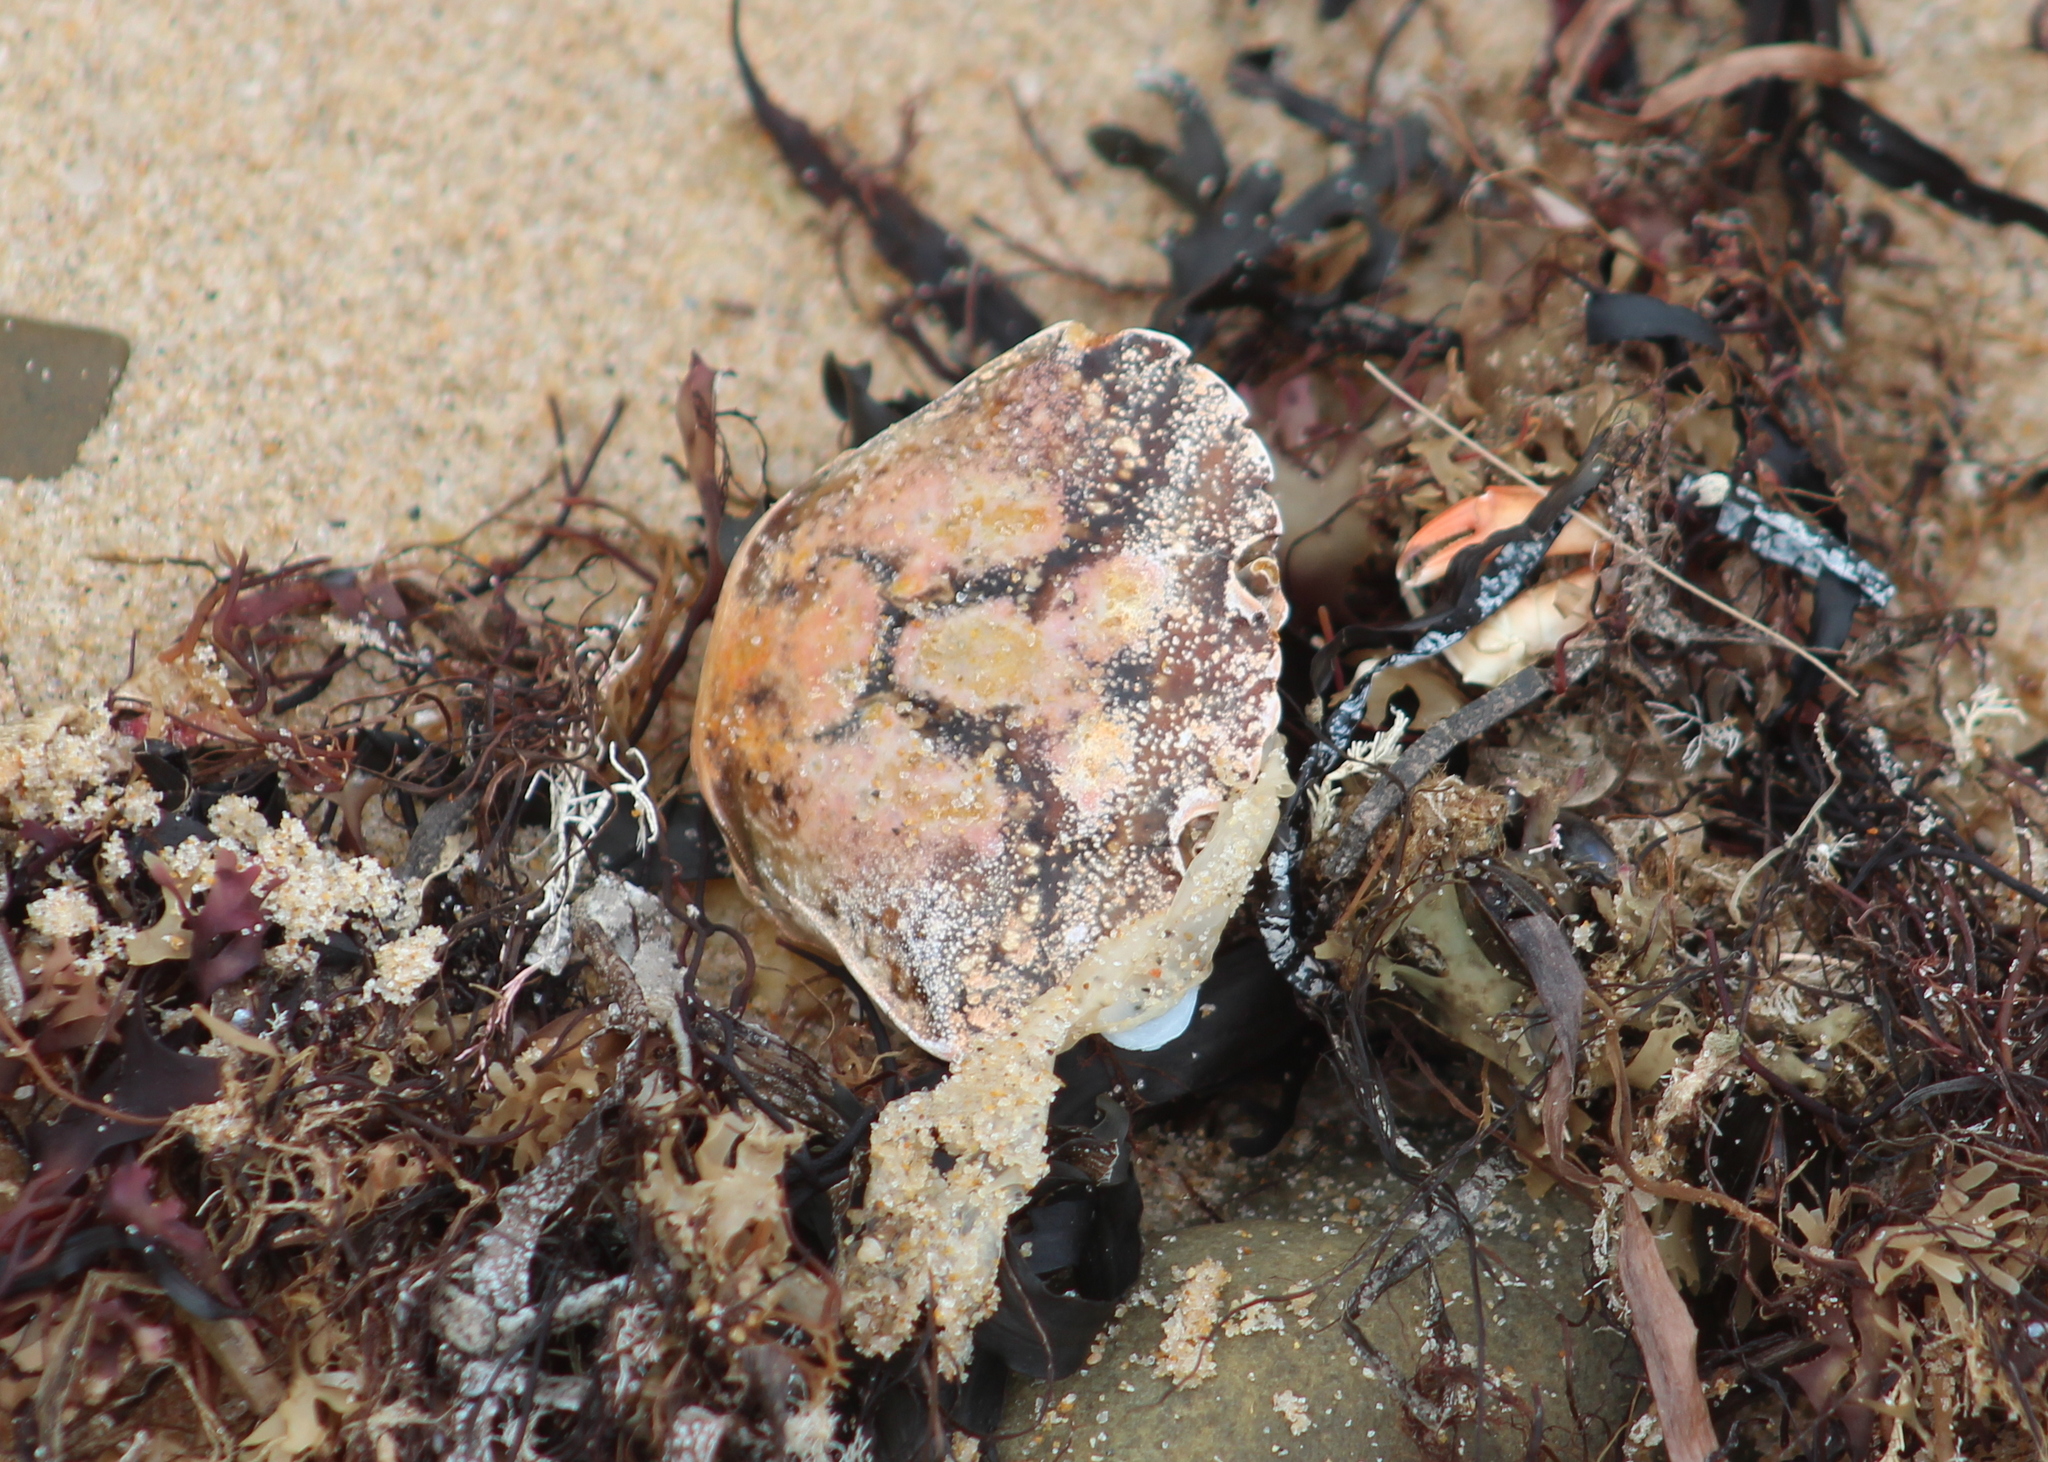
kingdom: Animalia
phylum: Arthropoda
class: Malacostraca
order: Decapoda
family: Carcinidae
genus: Carcinus
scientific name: Carcinus maenas
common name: European green crab
